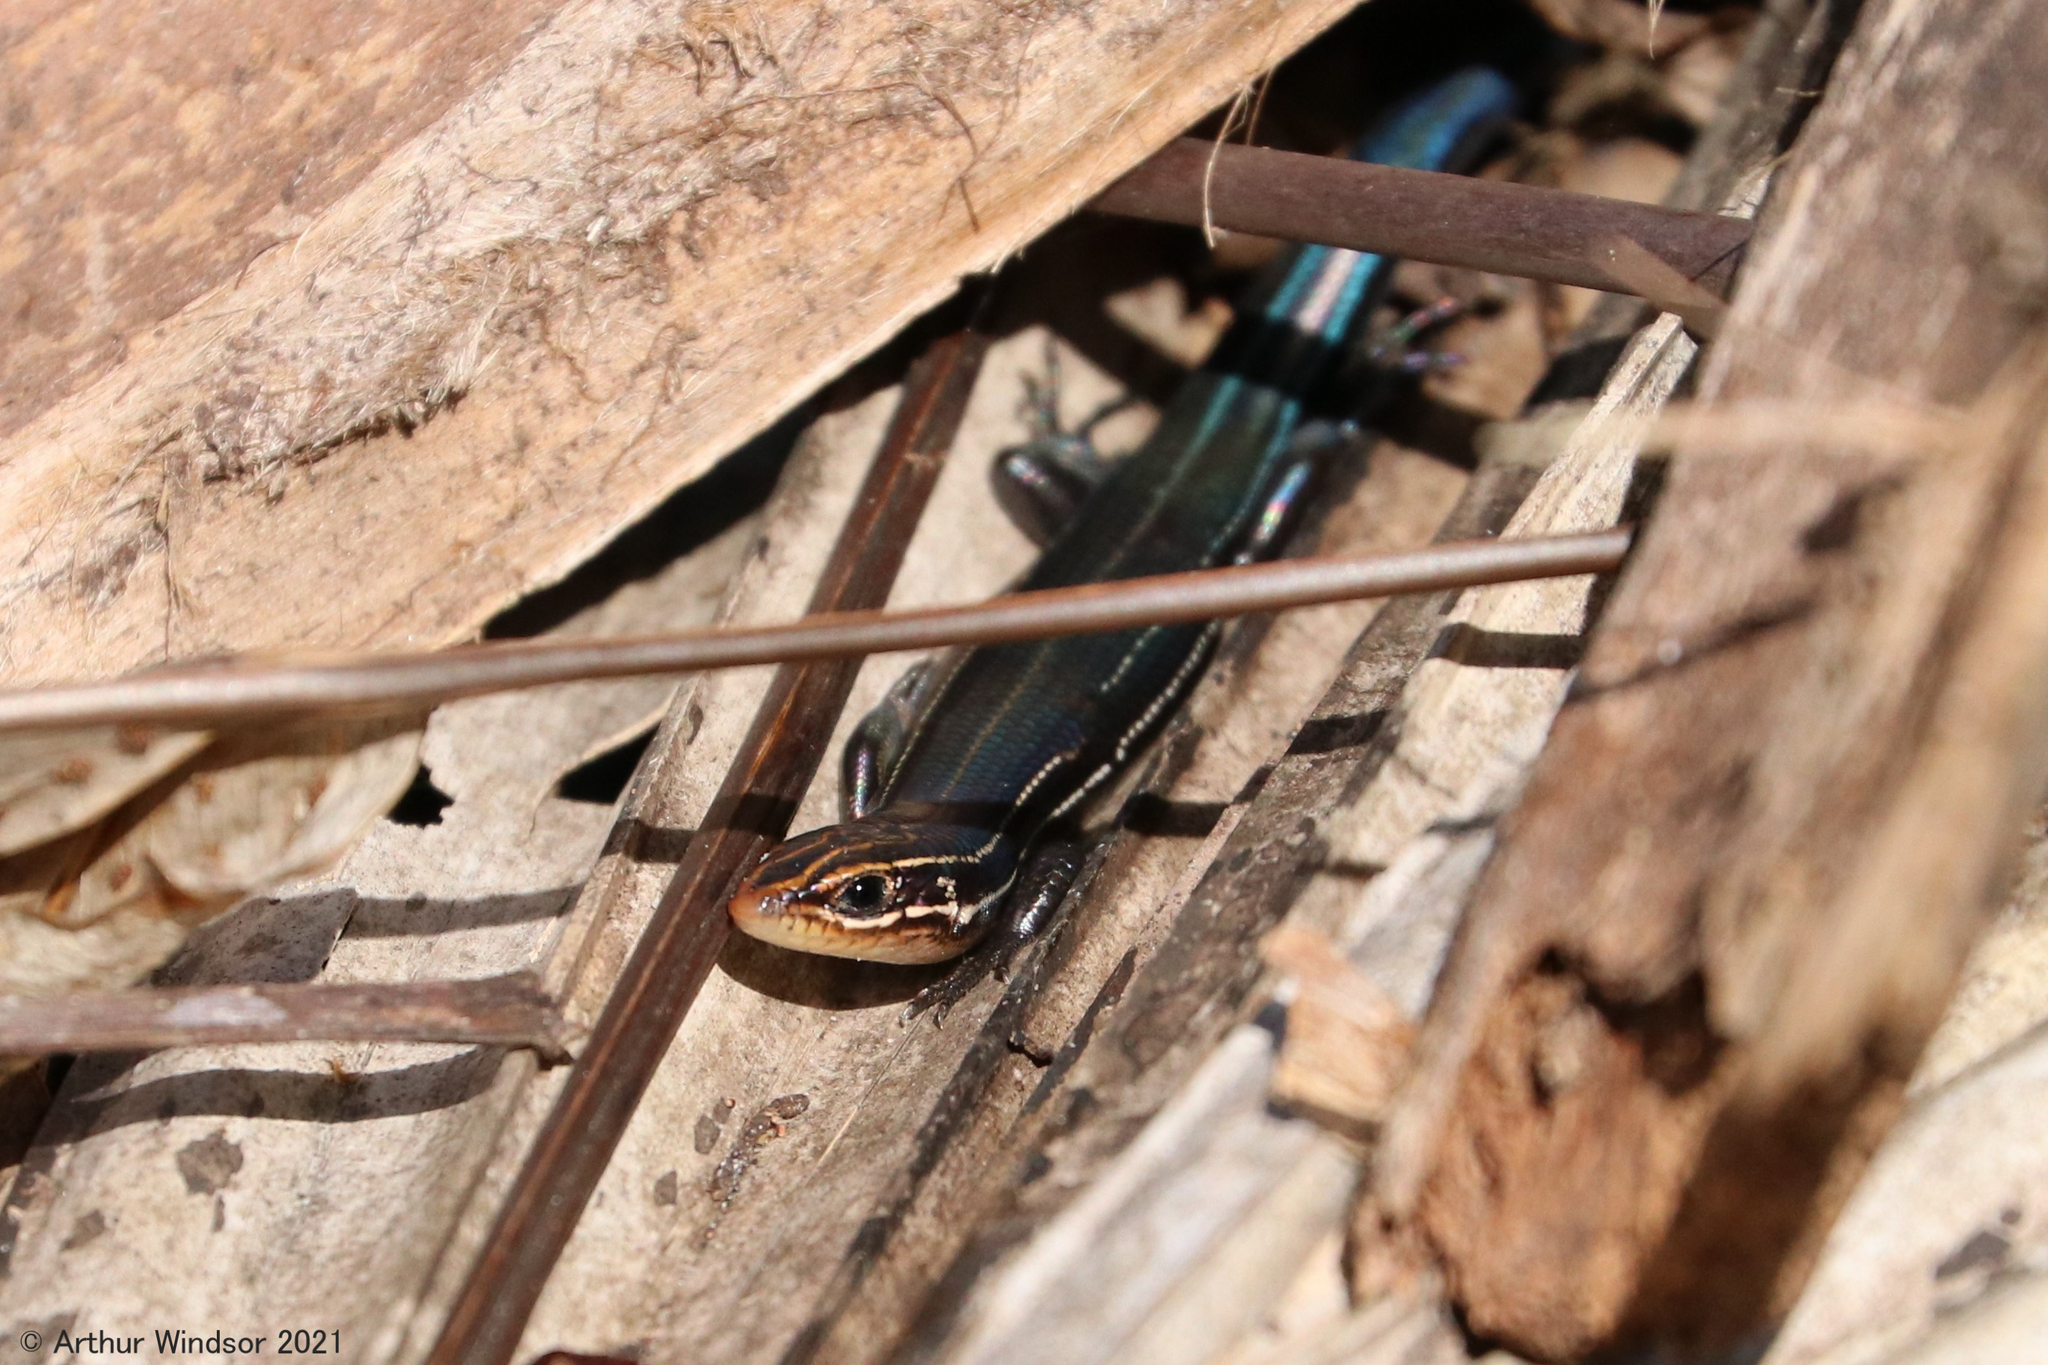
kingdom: Animalia
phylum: Chordata
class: Squamata
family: Scincidae
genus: Plestiodon
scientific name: Plestiodon inexpectatus
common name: Southeastern five-lined skink
